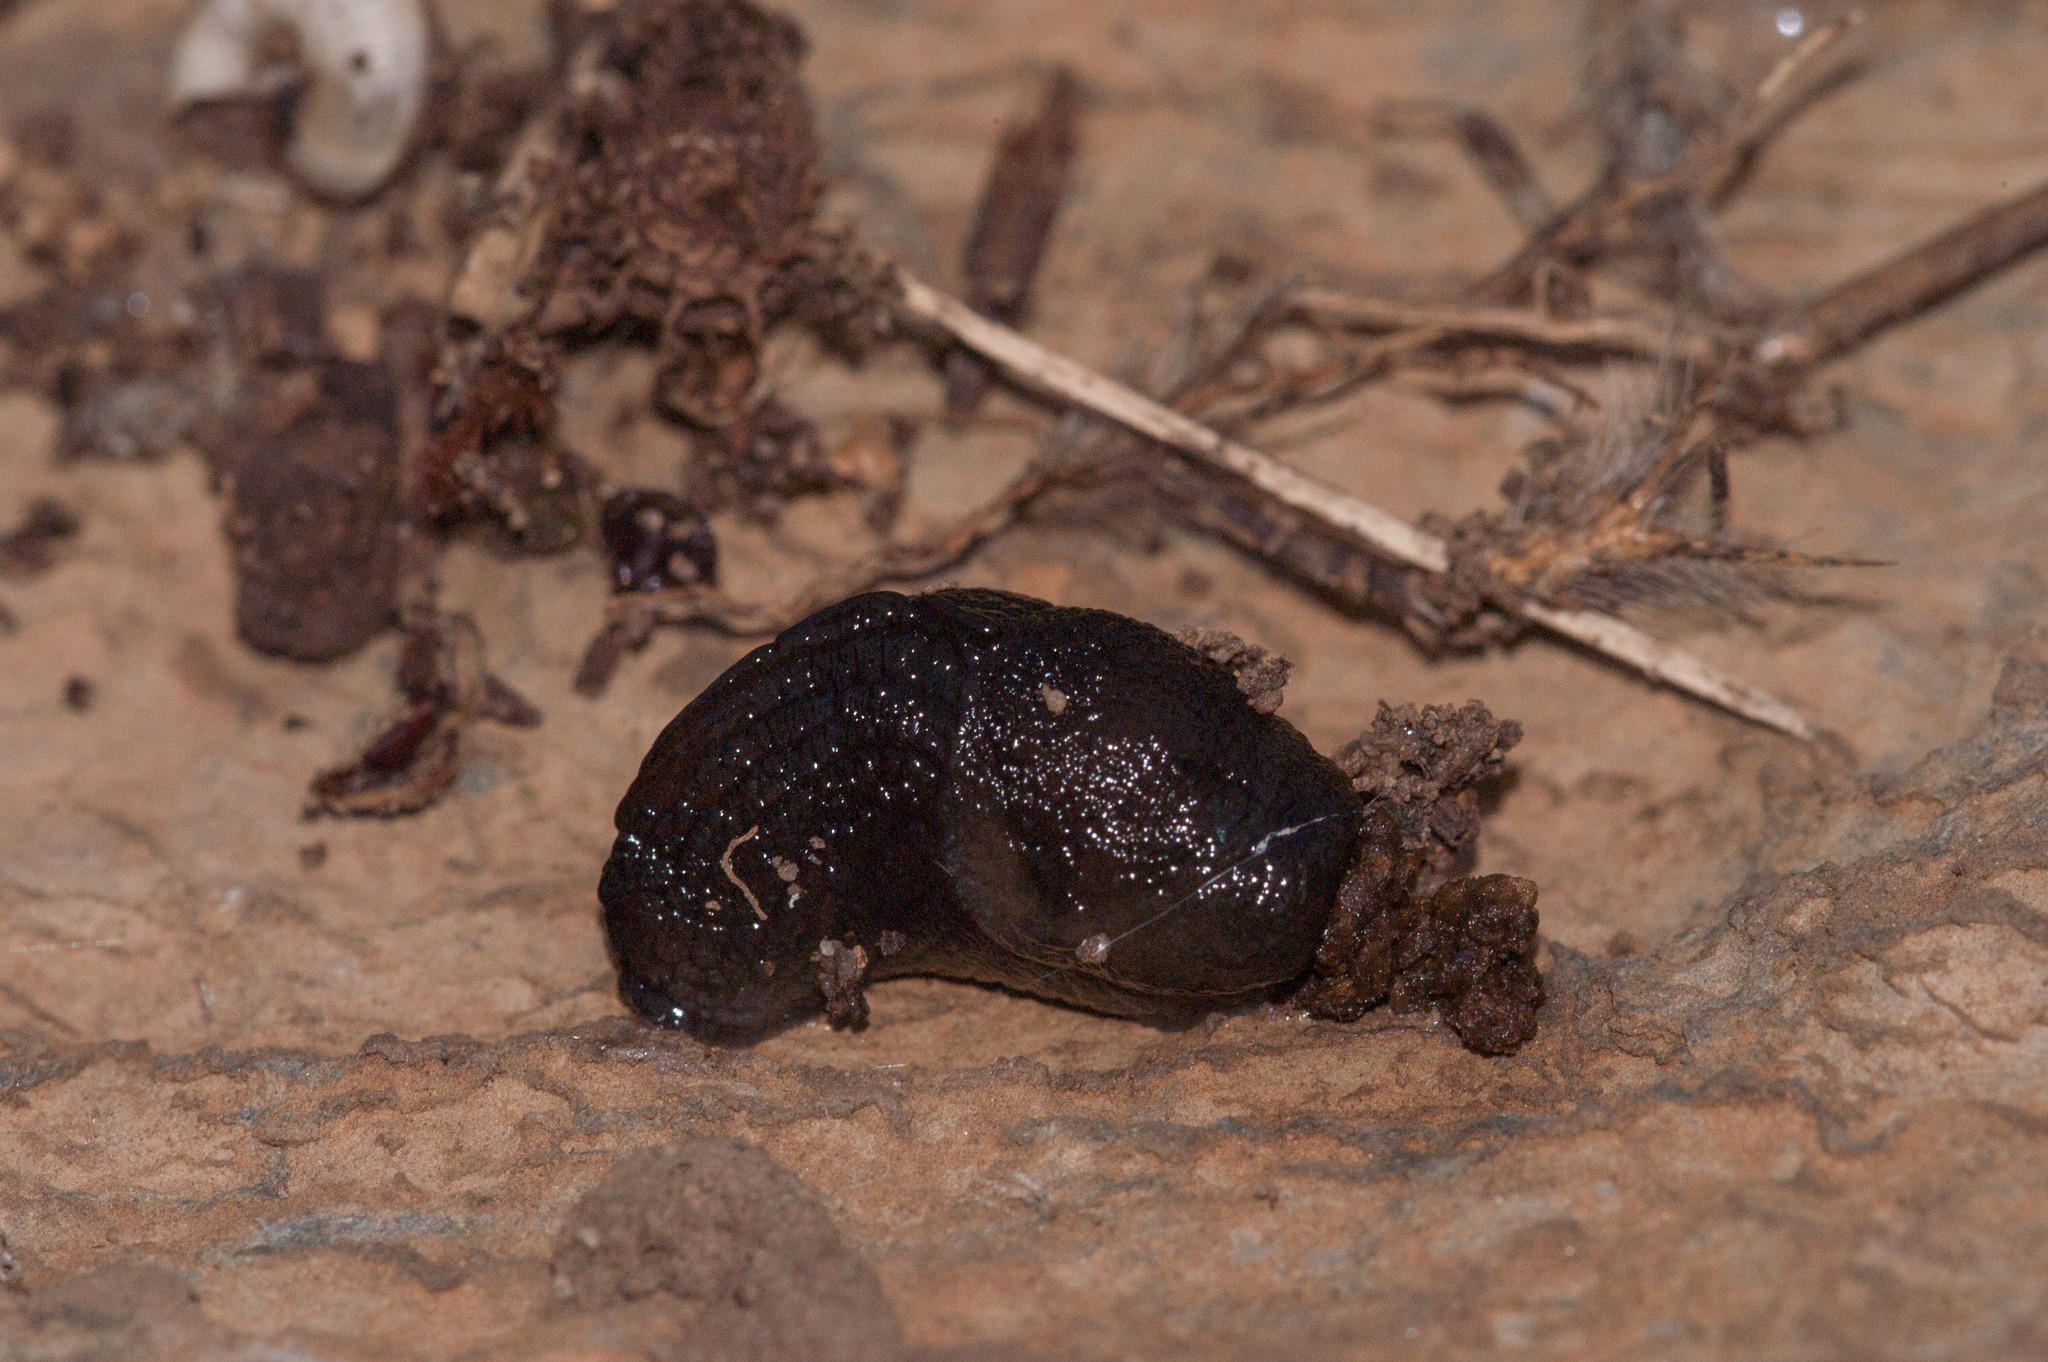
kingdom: Animalia
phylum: Mollusca
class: Gastropoda
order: Stylommatophora
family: Milacidae
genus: Milax
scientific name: Milax gagates
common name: Greenhouse slug
